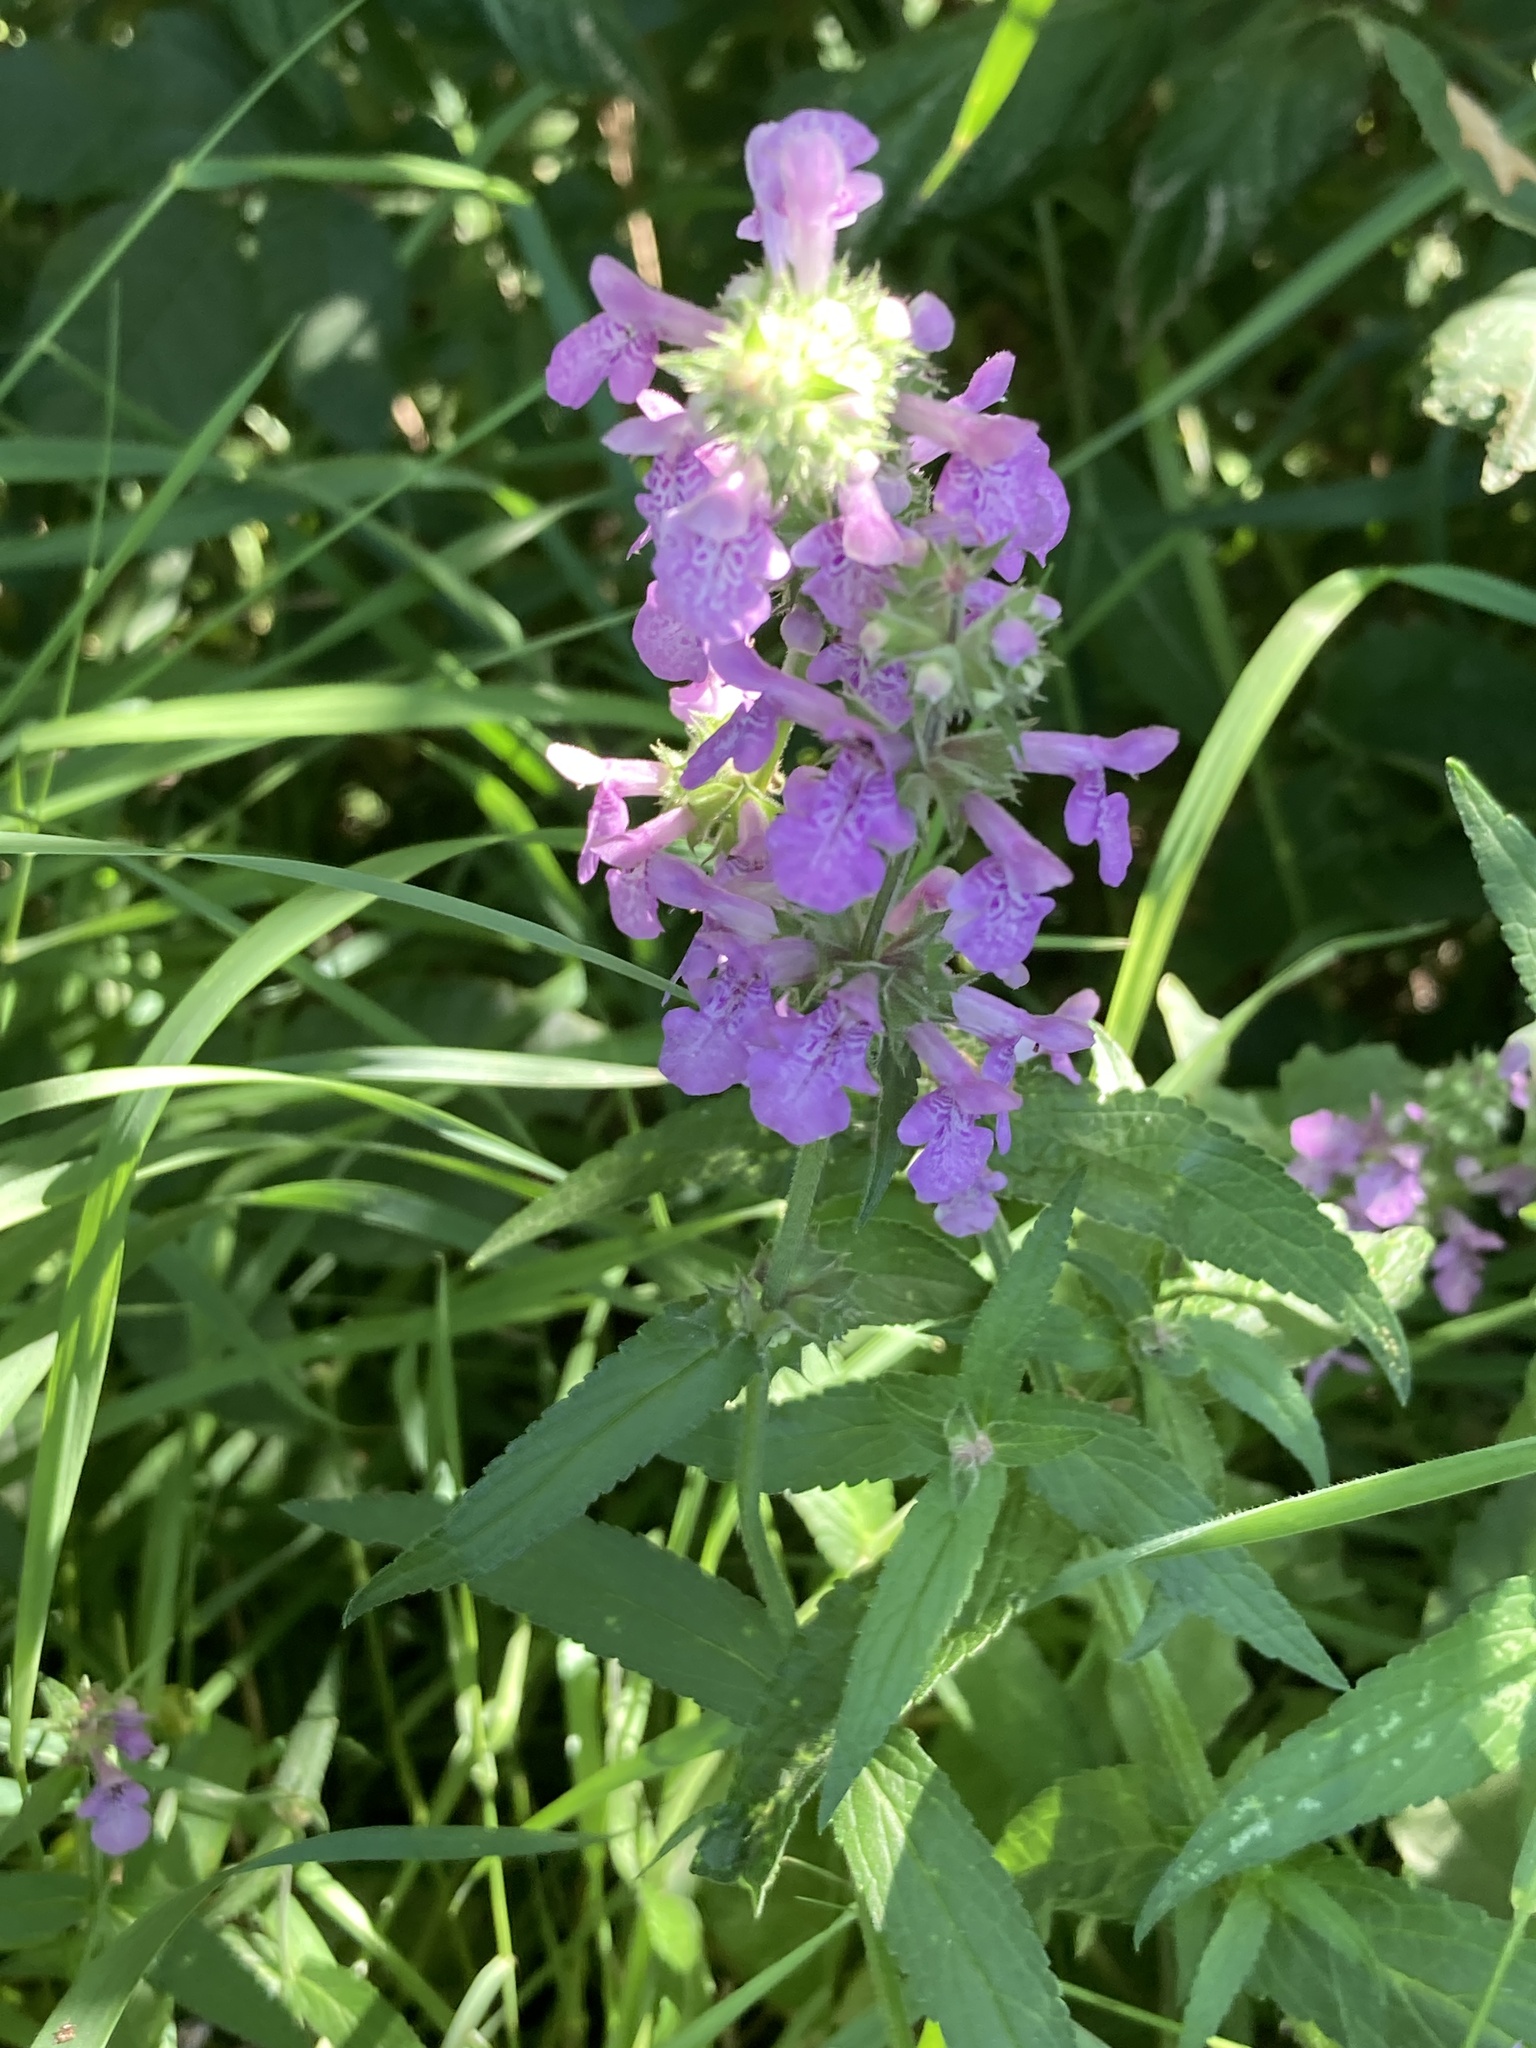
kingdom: Plantae
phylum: Tracheophyta
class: Magnoliopsida
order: Lamiales
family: Lamiaceae
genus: Stachys
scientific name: Stachys palustris
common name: Marsh woundwort
